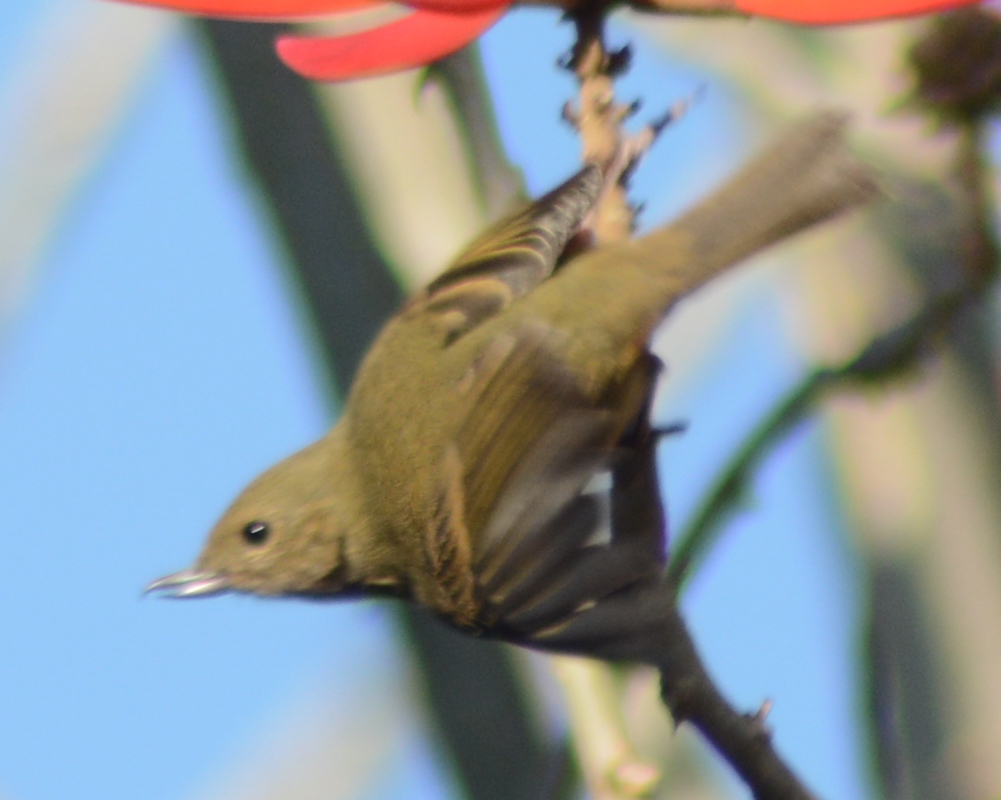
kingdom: Animalia
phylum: Chordata
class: Aves
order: Passeriformes
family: Thraupidae
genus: Diglossa
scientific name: Diglossa baritula
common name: Cinnamon-bellied flowerpiercer
